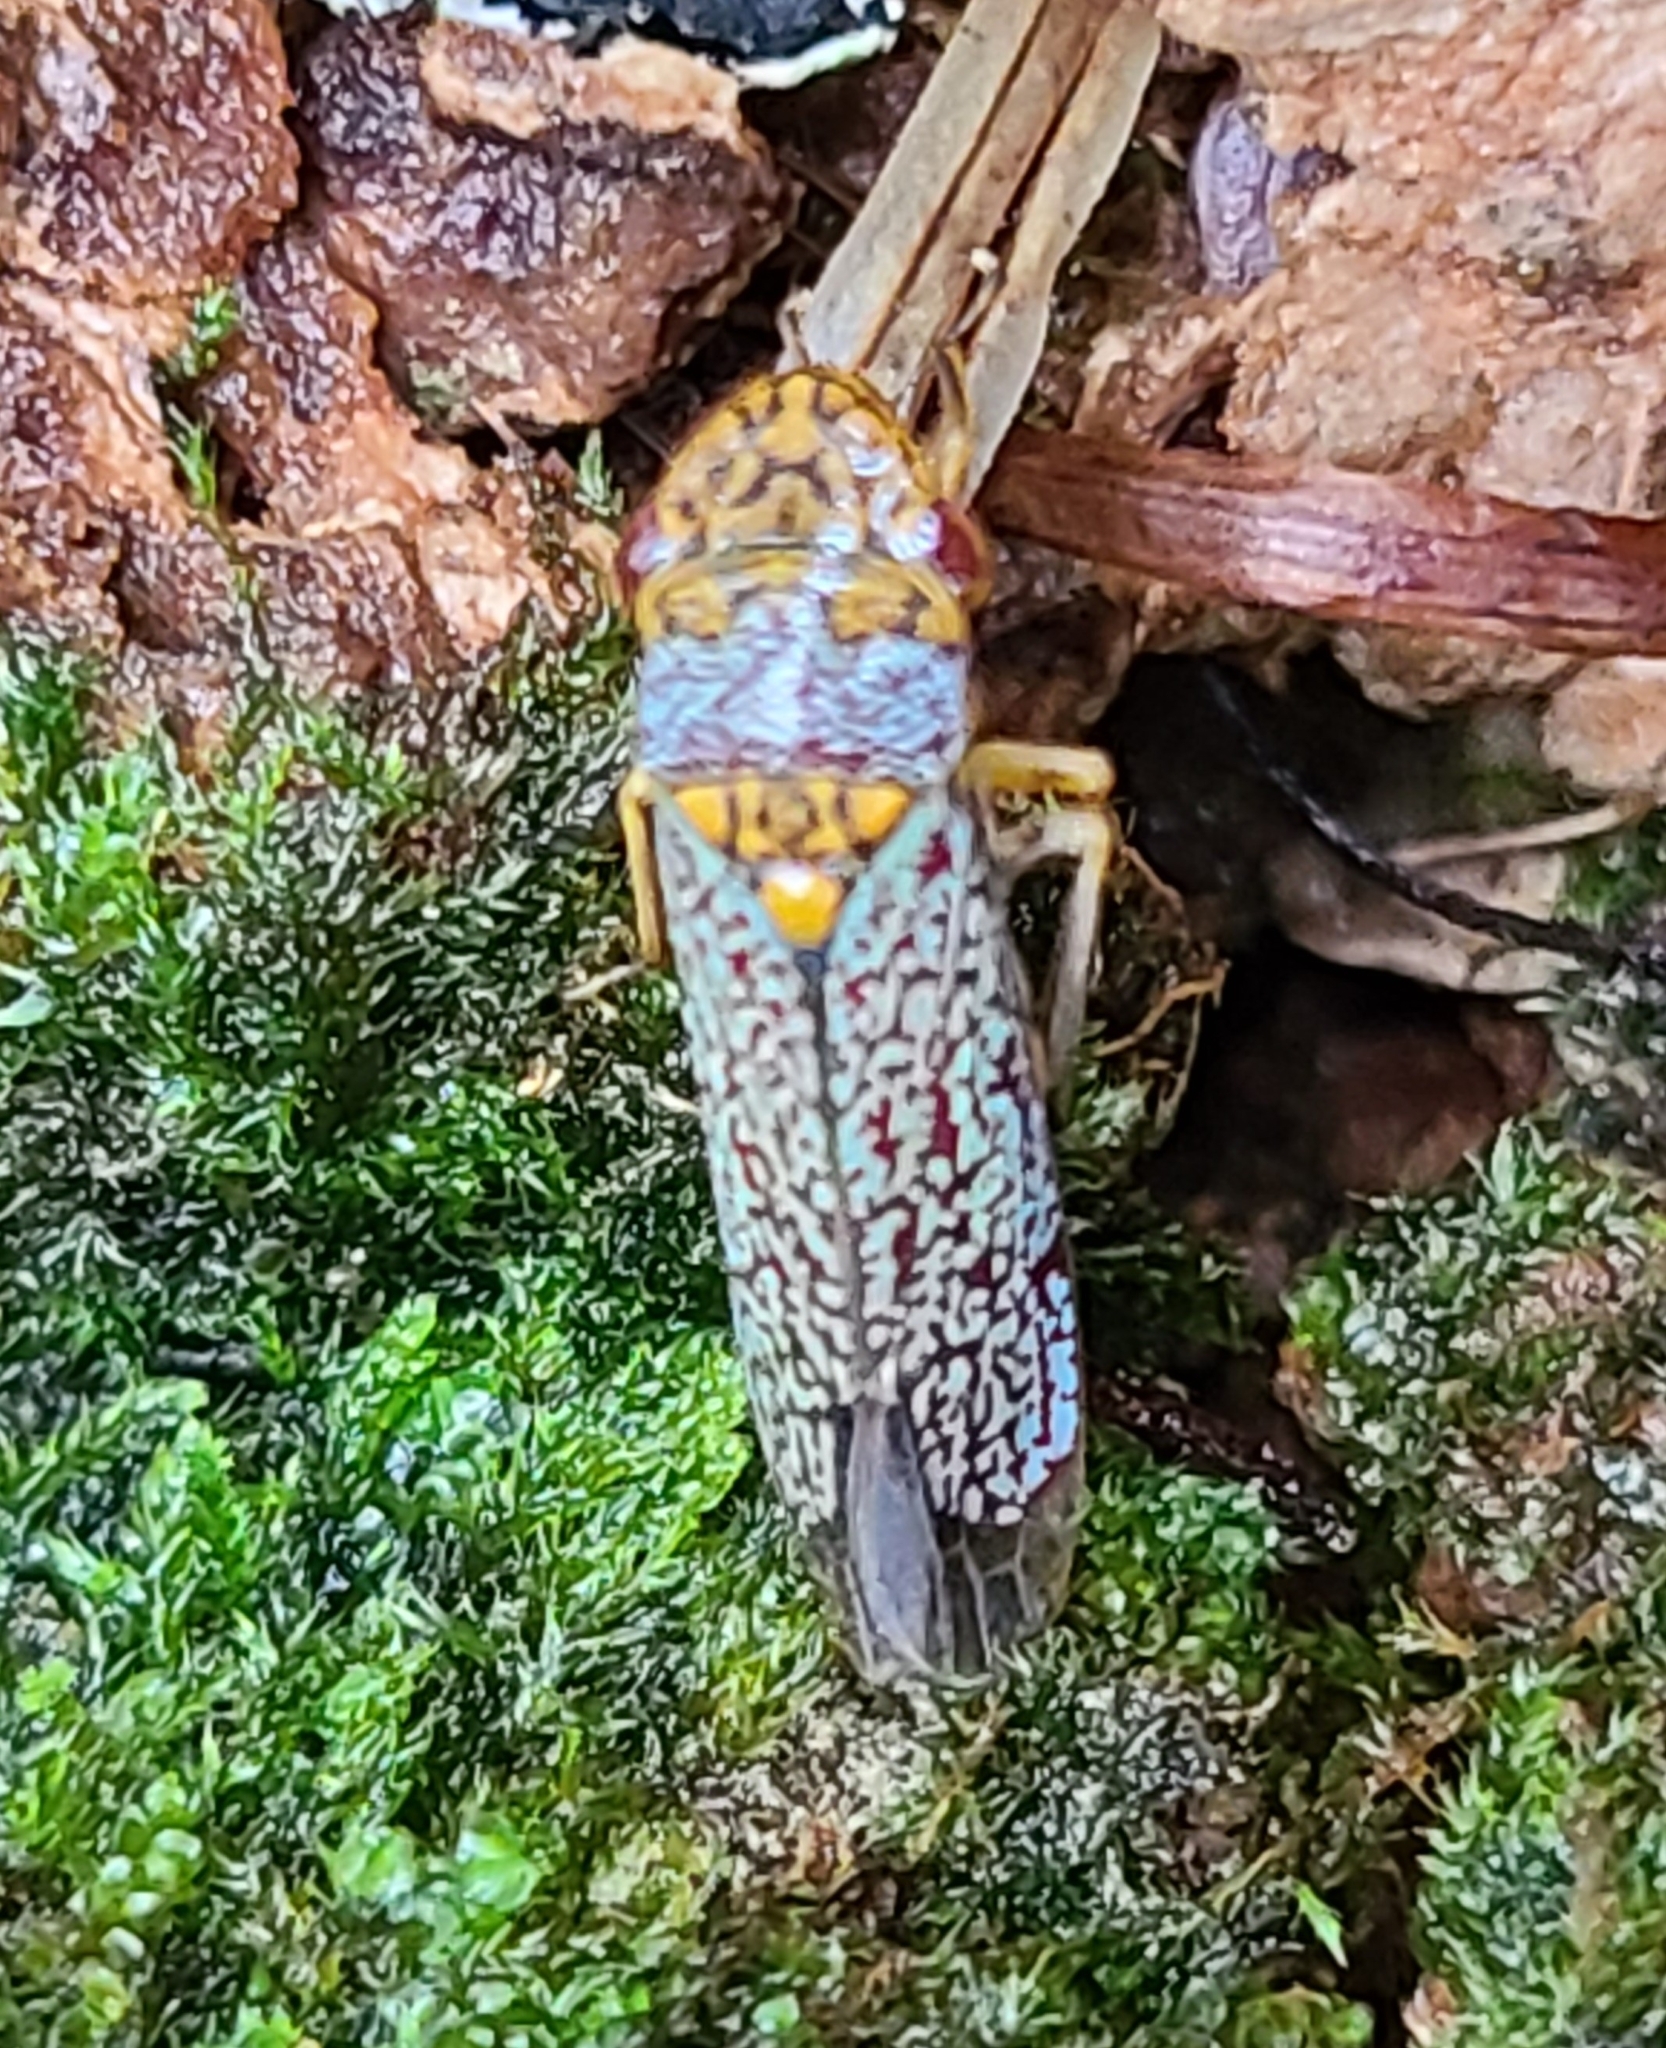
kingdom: Animalia
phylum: Arthropoda
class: Insecta
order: Hemiptera
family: Cicadellidae
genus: Oncometopia
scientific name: Oncometopia orbona
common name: Broad-headed sharpshooter
